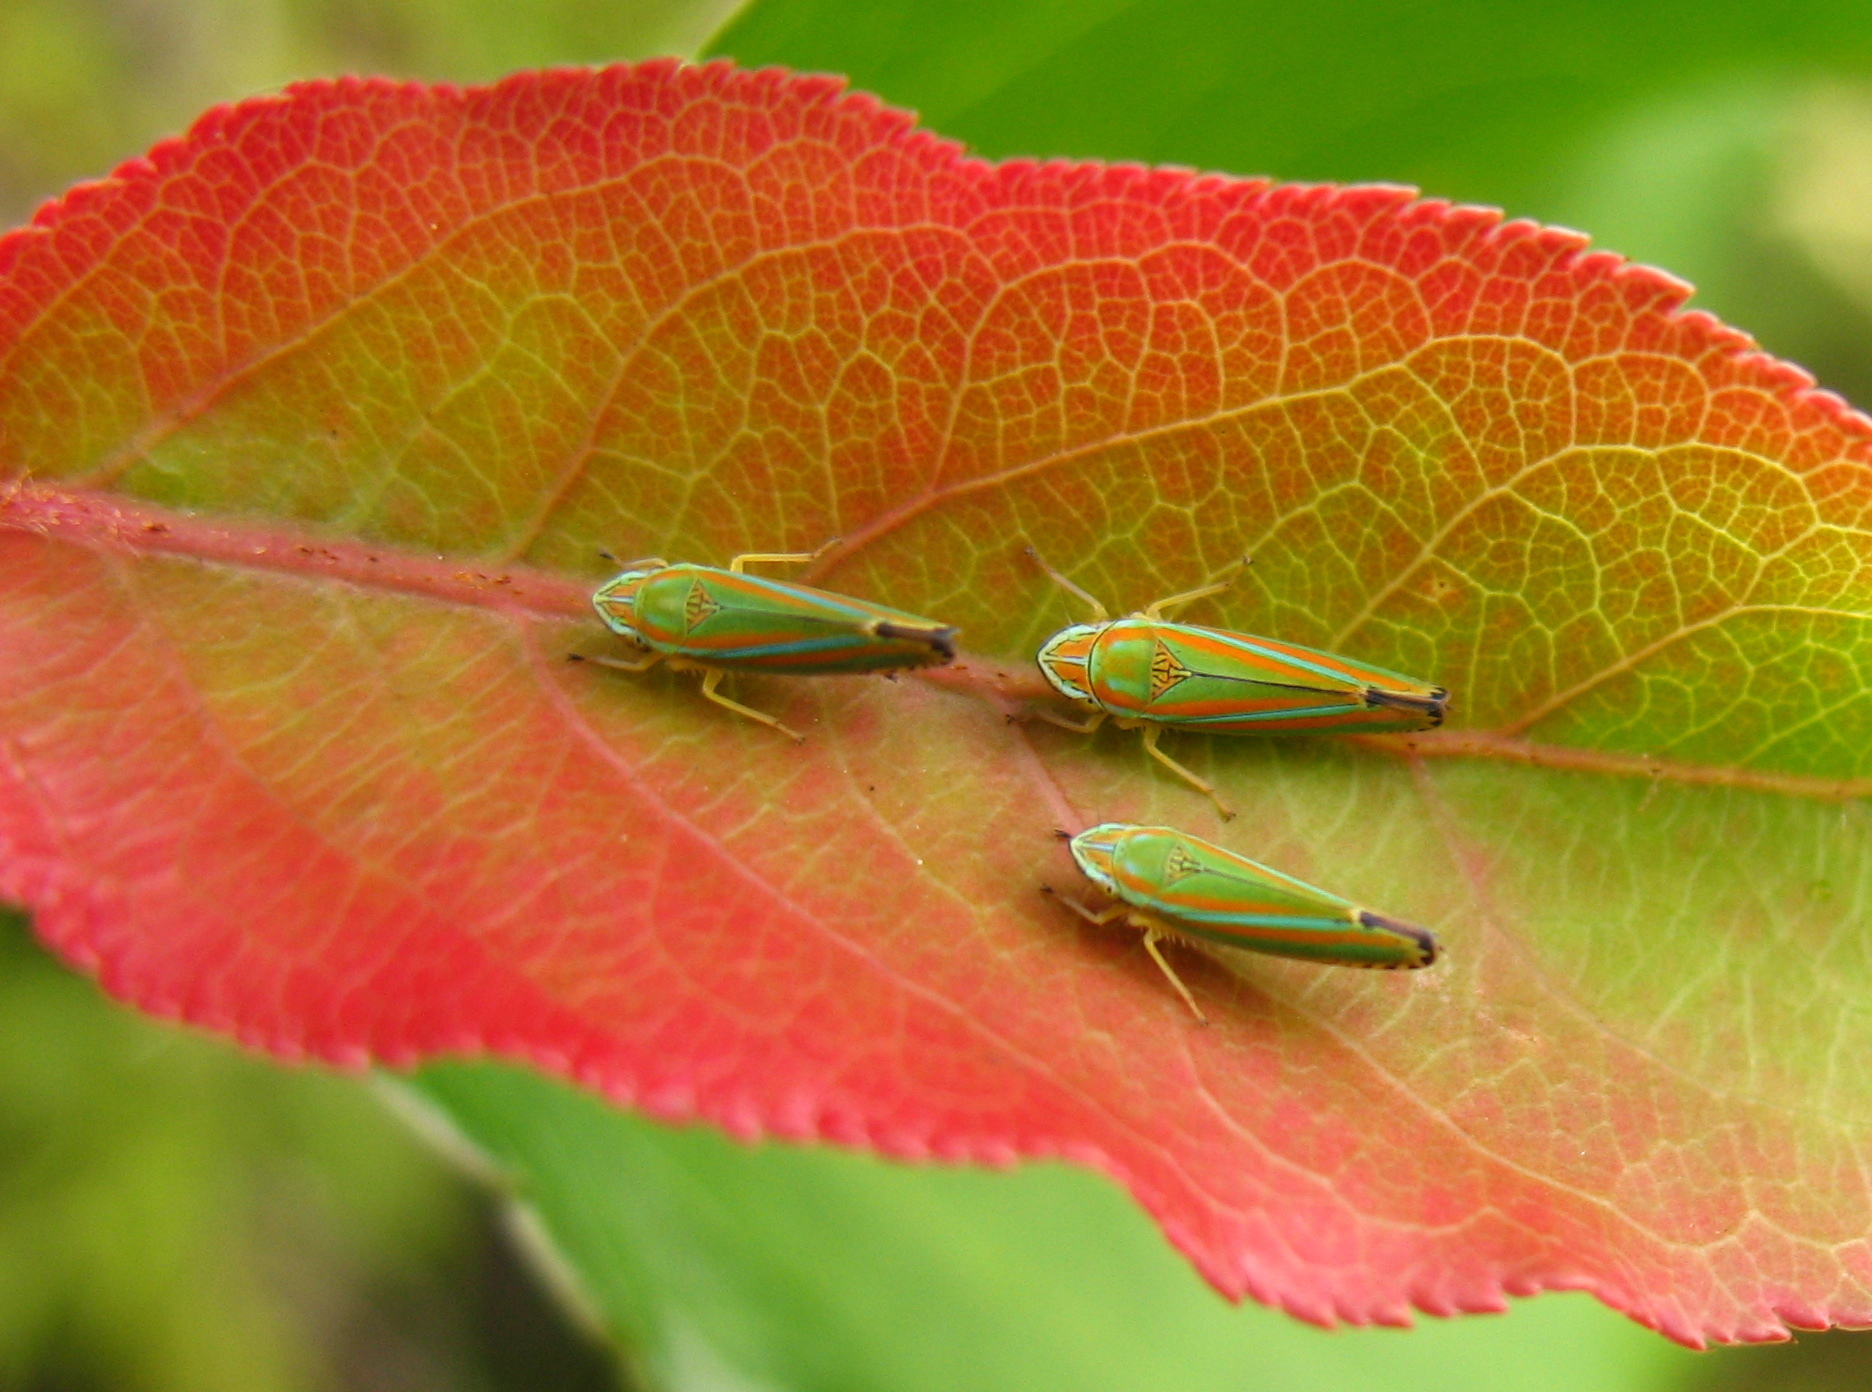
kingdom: Animalia
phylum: Arthropoda
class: Insecta
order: Hemiptera
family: Cicadellidae
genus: Graphocephala
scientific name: Graphocephala versuta
